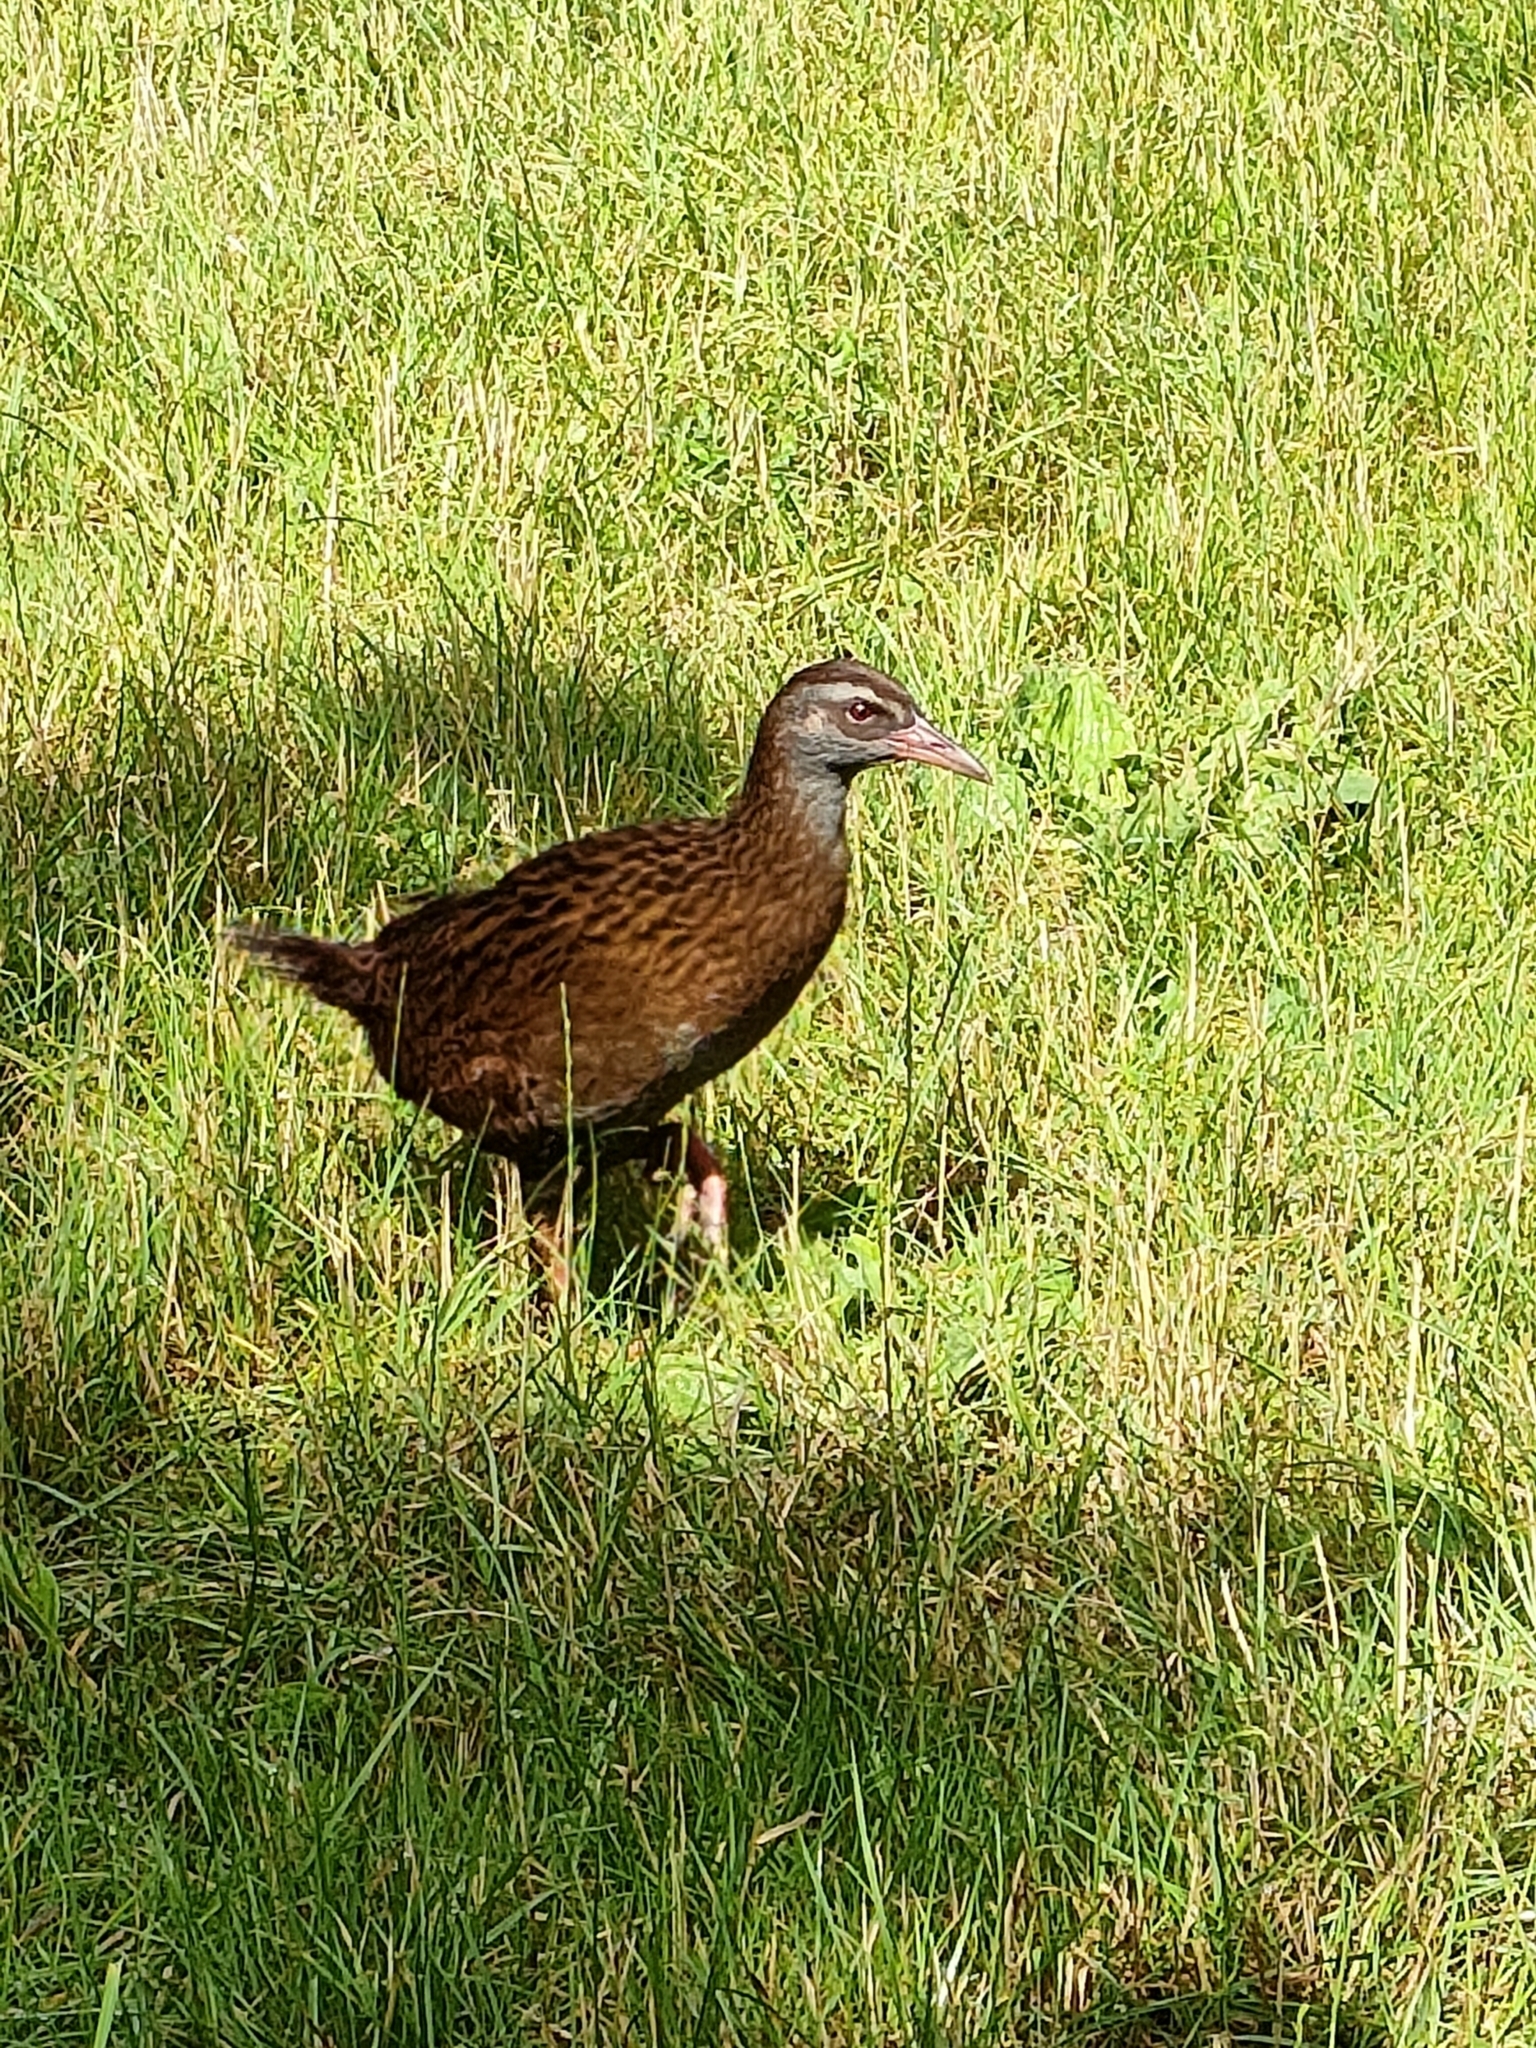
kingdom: Animalia
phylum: Chordata
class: Aves
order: Gruiformes
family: Rallidae
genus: Gallirallus
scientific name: Gallirallus australis
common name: Weka
